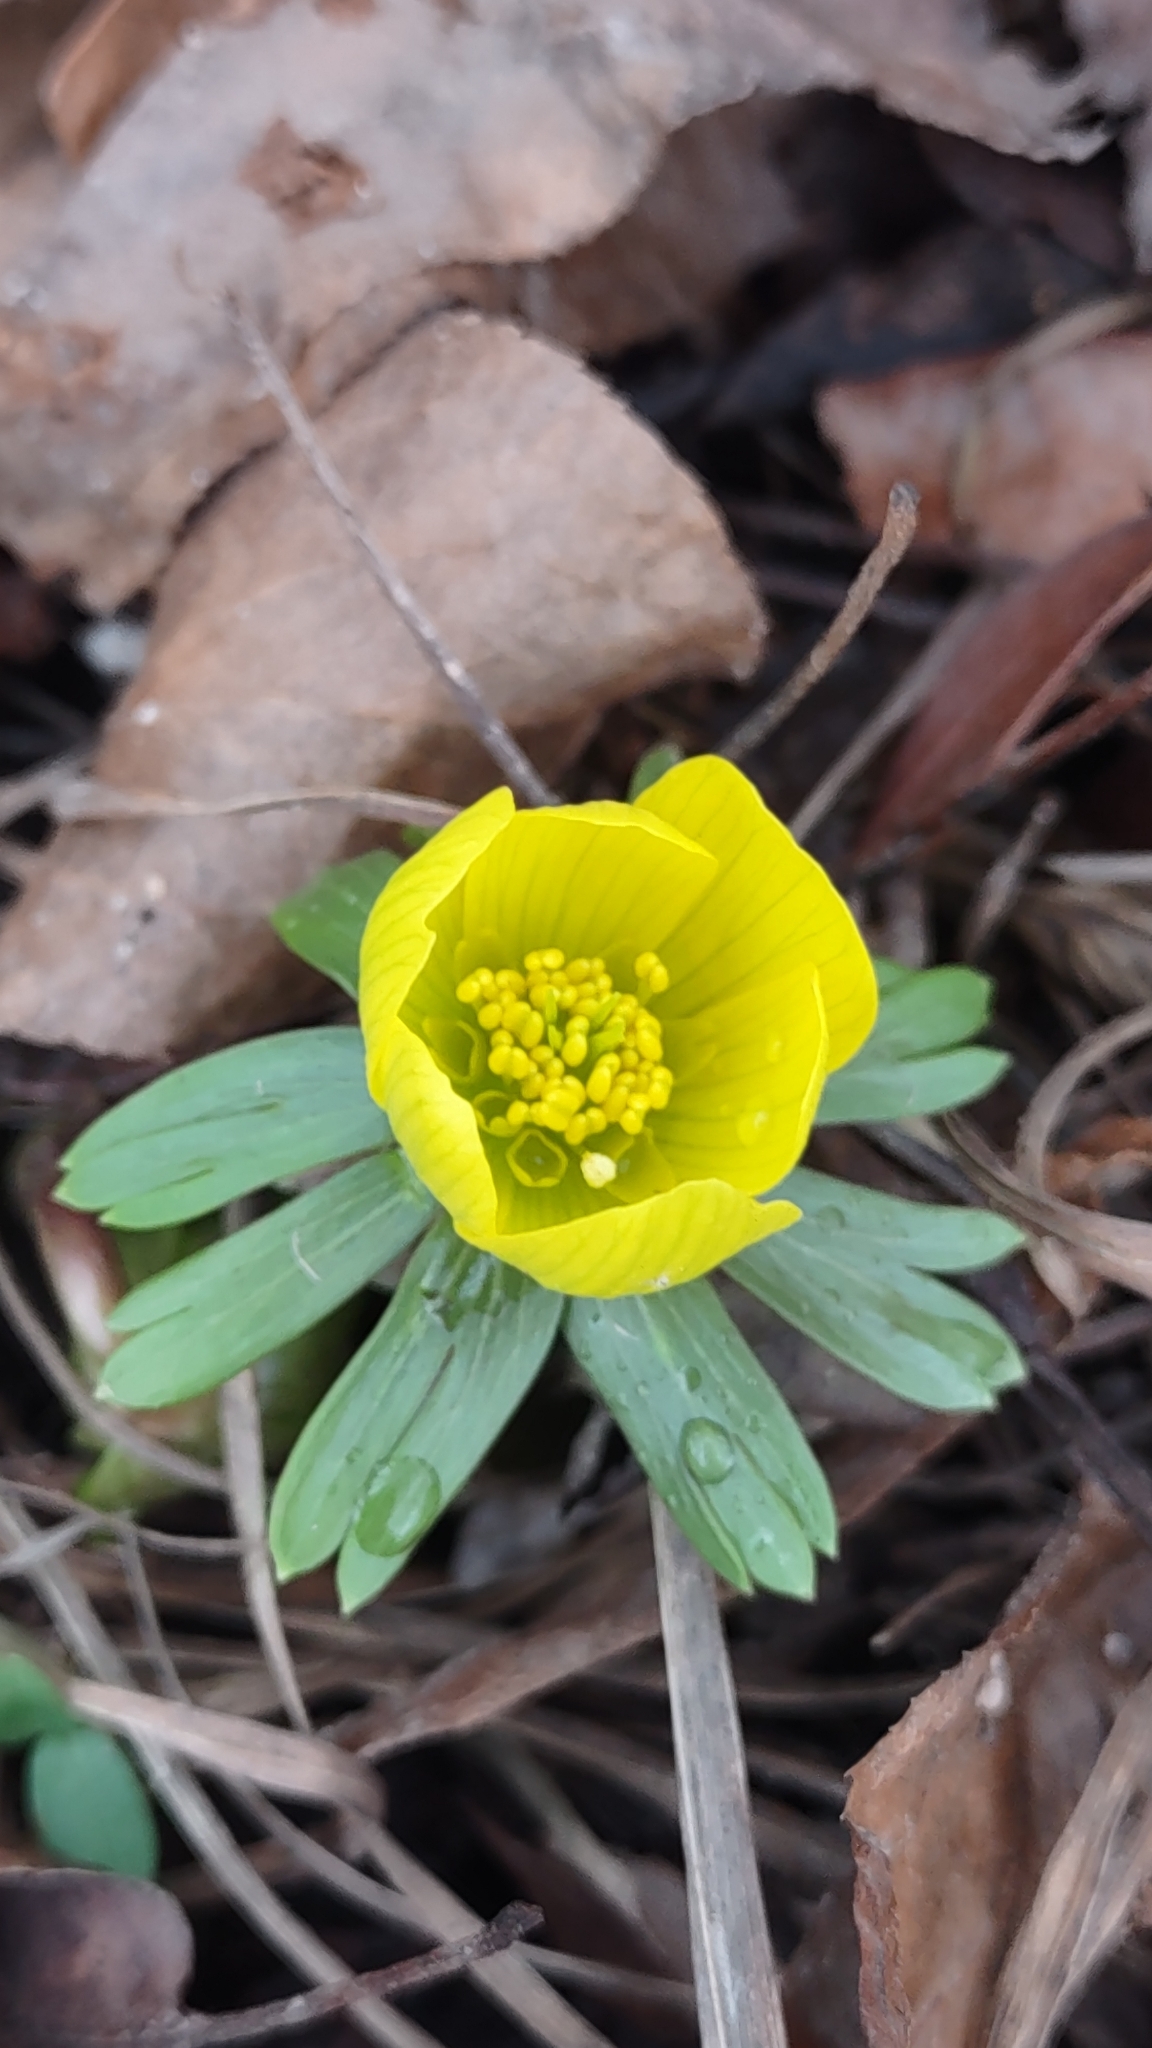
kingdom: Plantae
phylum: Tracheophyta
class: Magnoliopsida
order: Ranunculales
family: Ranunculaceae
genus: Eranthis
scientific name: Eranthis hyemalis
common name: Winter aconite
